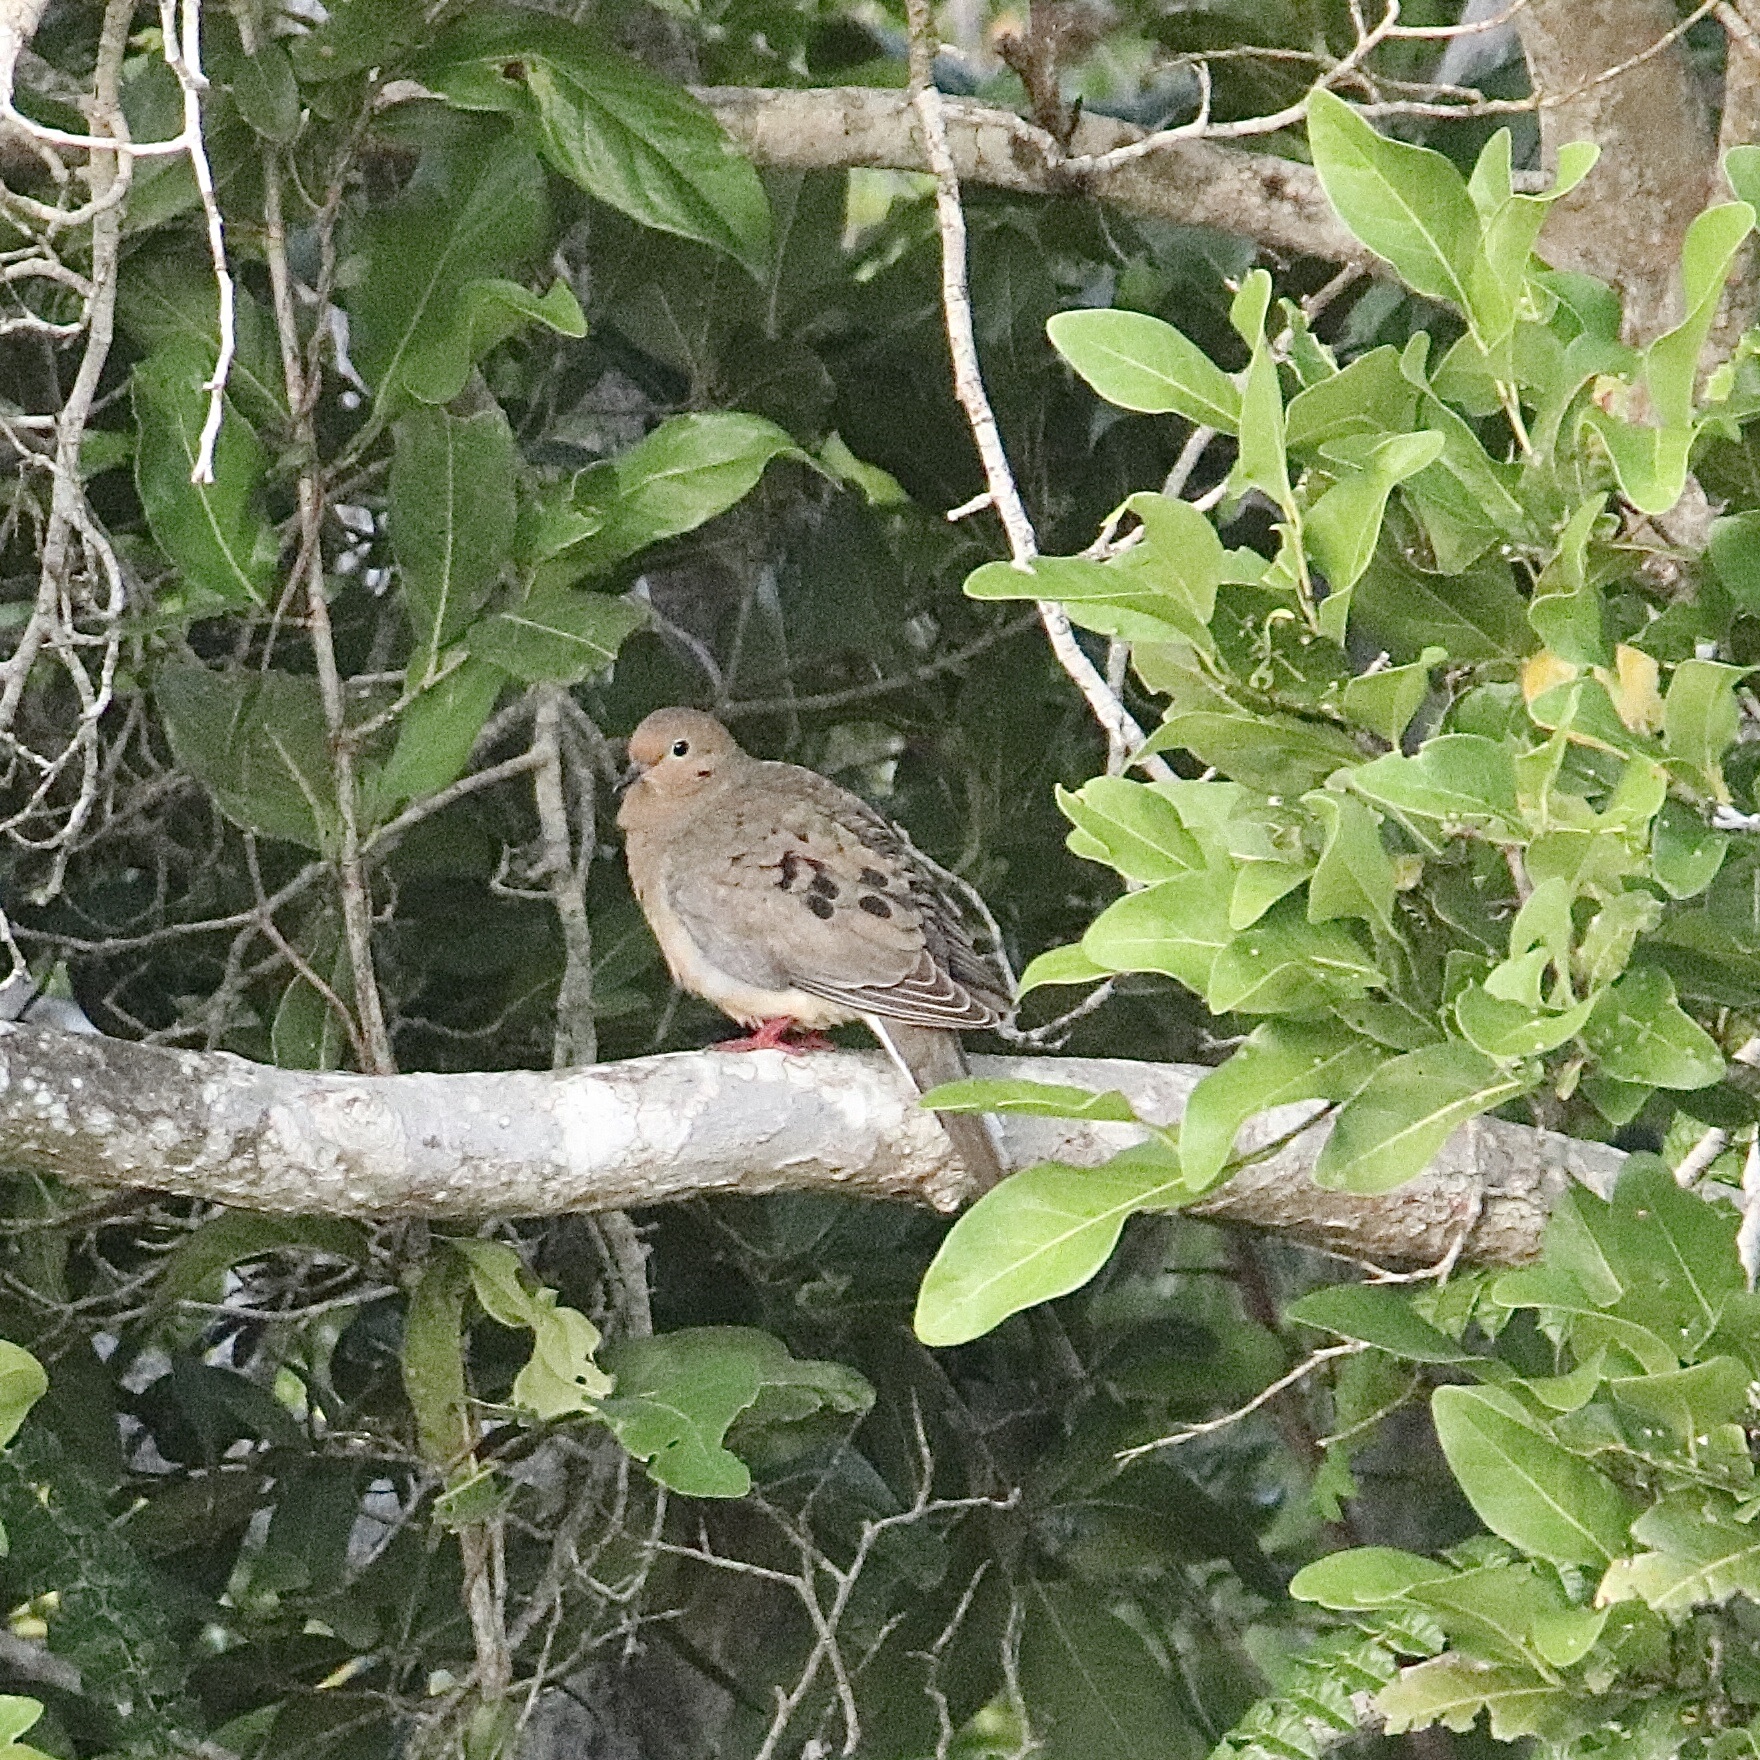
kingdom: Animalia
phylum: Chordata
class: Aves
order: Columbiformes
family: Columbidae
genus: Zenaida
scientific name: Zenaida macroura
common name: Mourning dove
